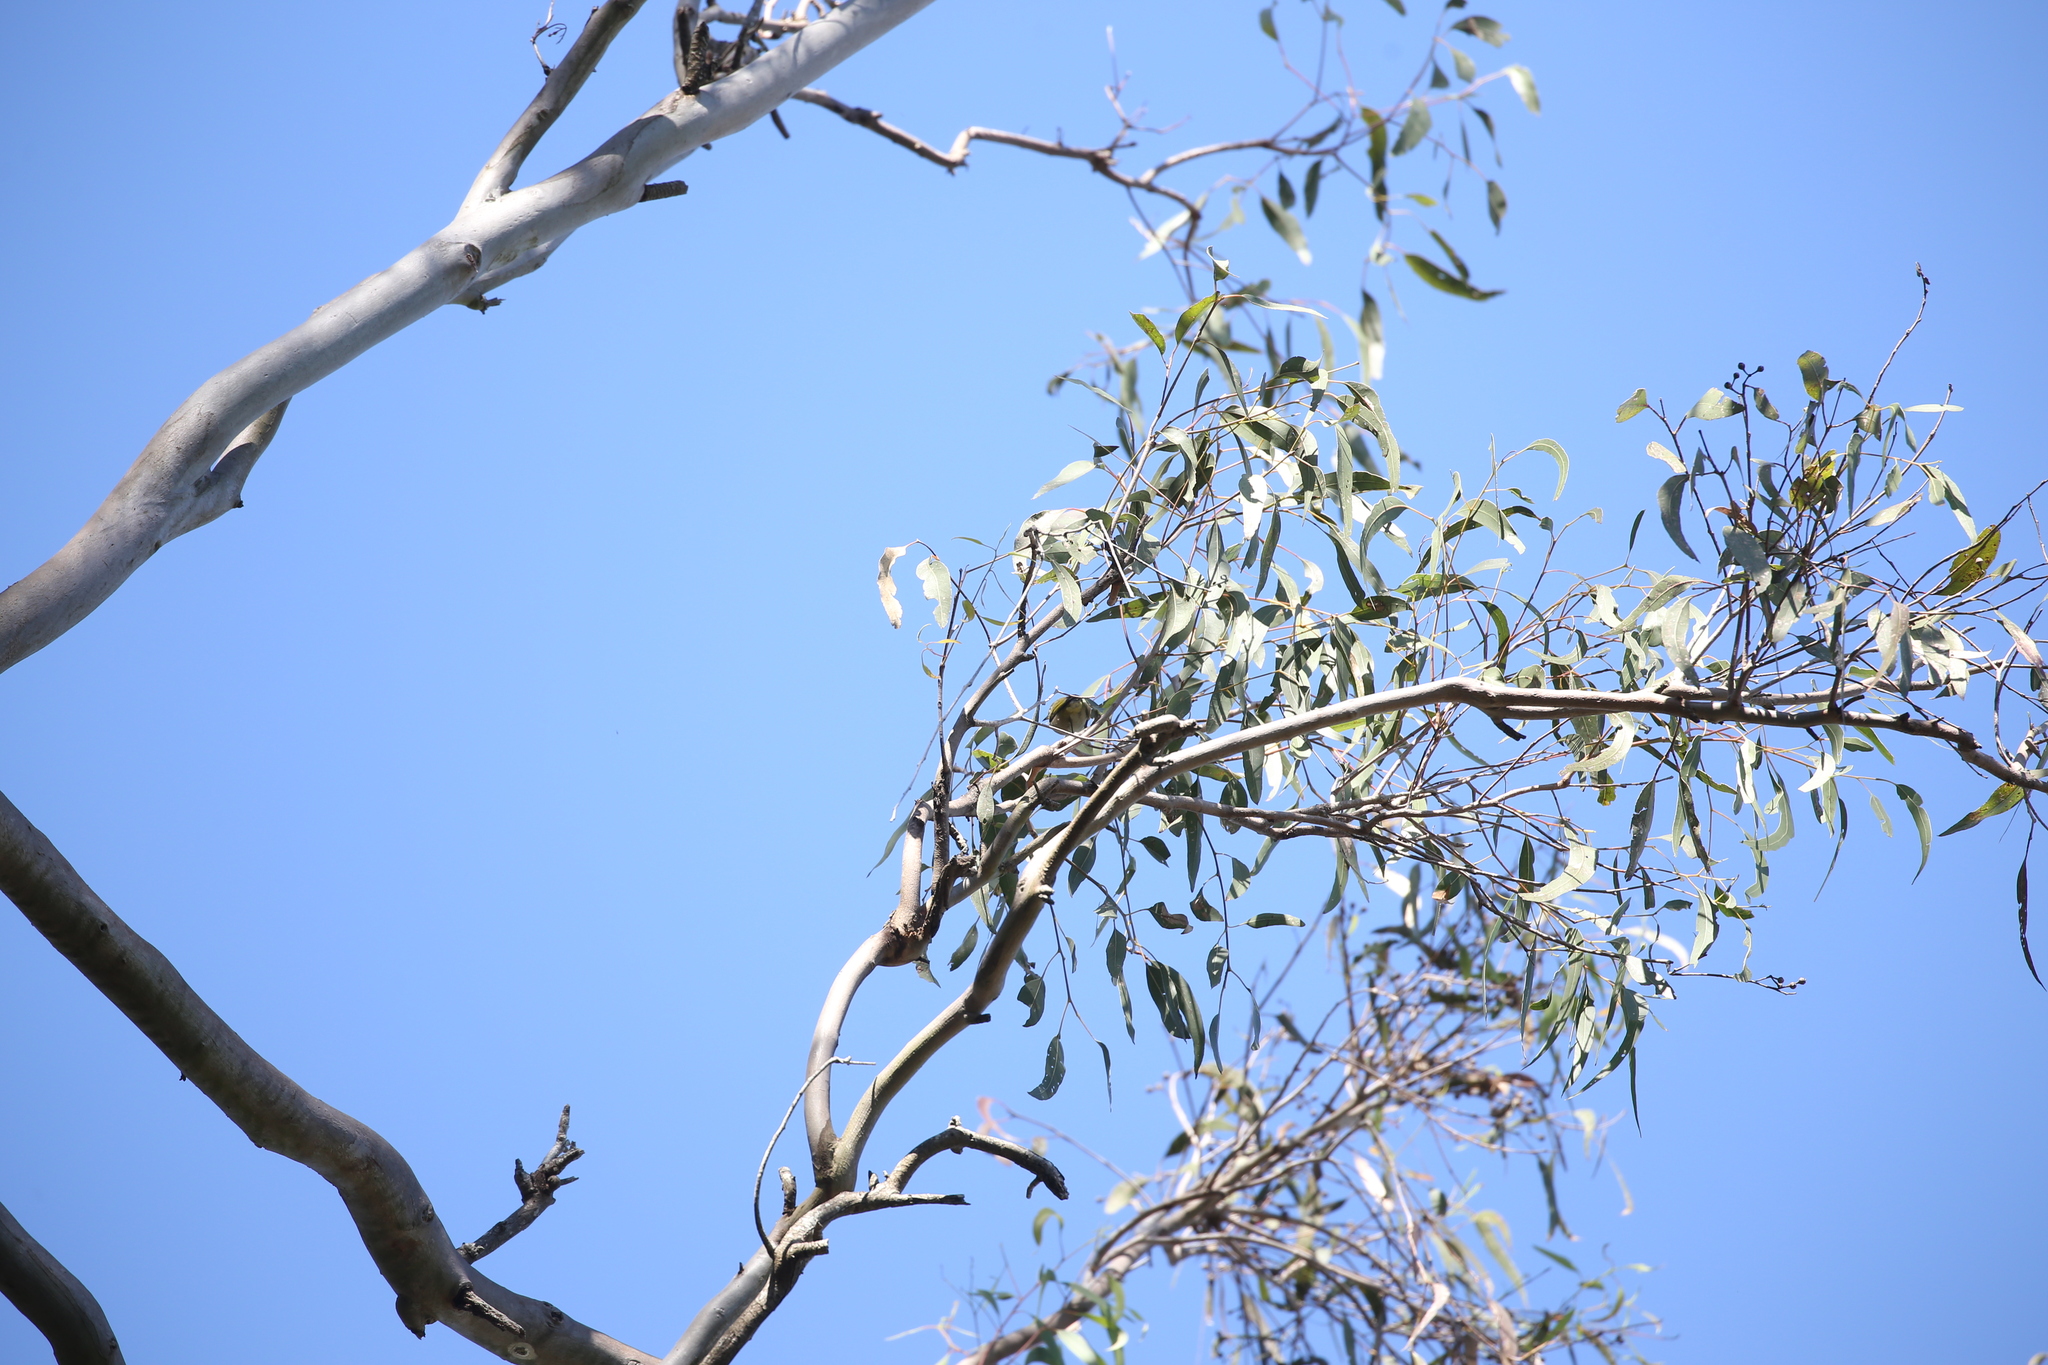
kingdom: Animalia
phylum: Chordata
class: Aves
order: Passeriformes
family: Zosteropidae
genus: Zosterops
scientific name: Zosterops lateralis
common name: Silvereye
